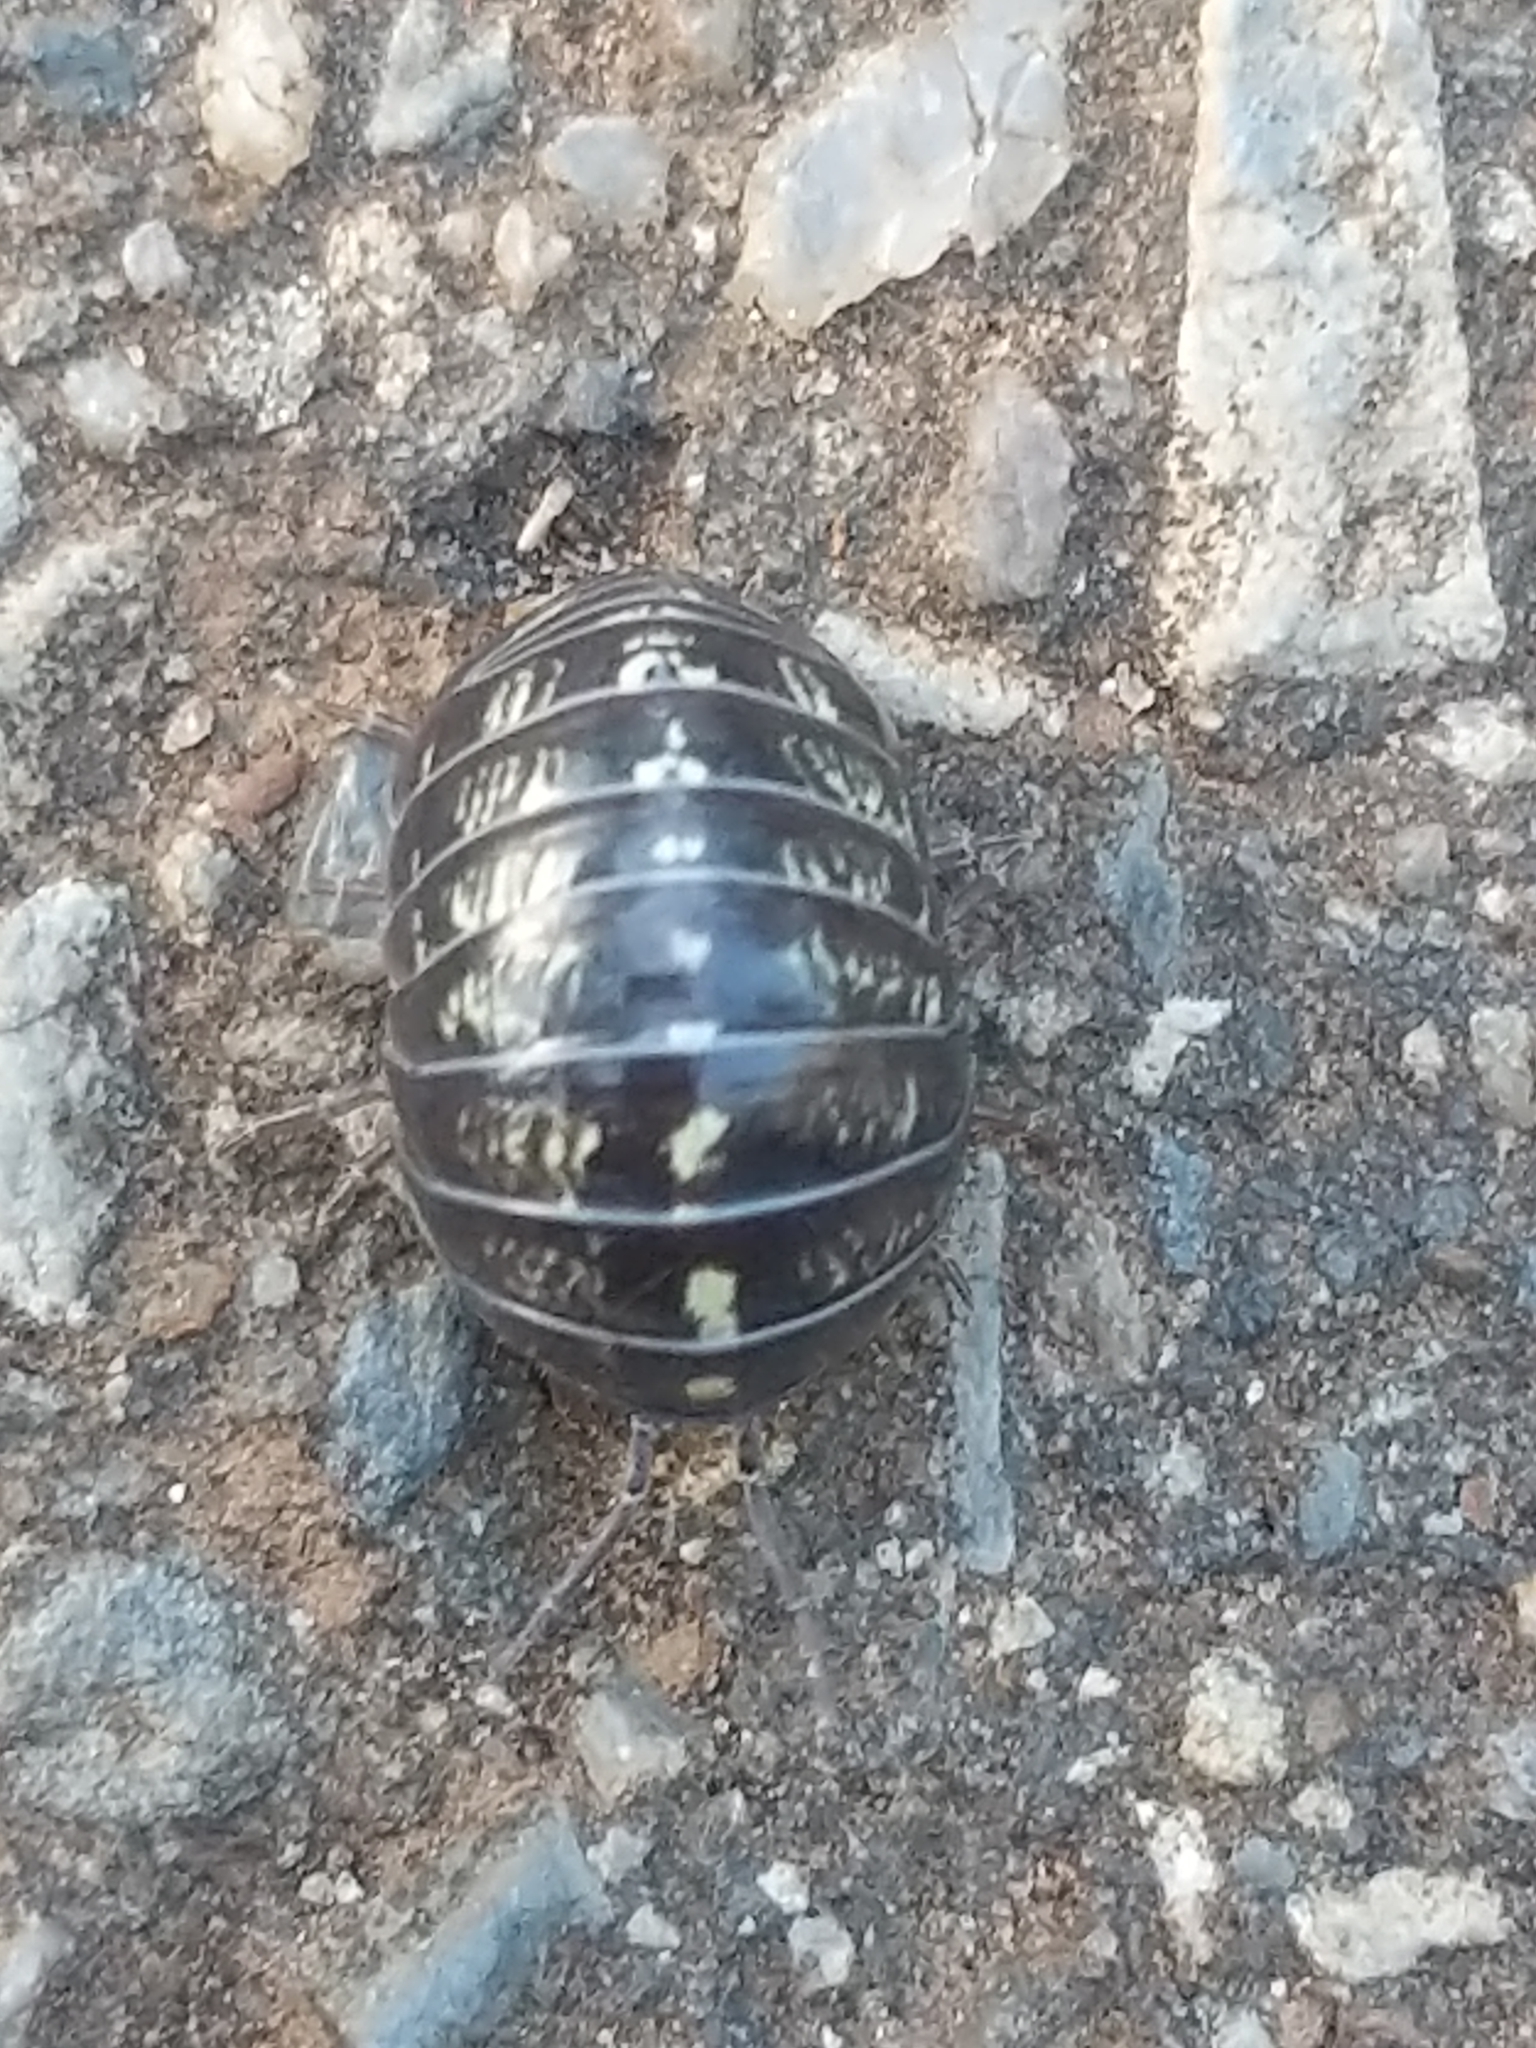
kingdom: Animalia
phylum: Arthropoda
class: Malacostraca
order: Isopoda
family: Armadillidiidae
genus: Armadillidium
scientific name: Armadillidium vulgare
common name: Common pill woodlouse
